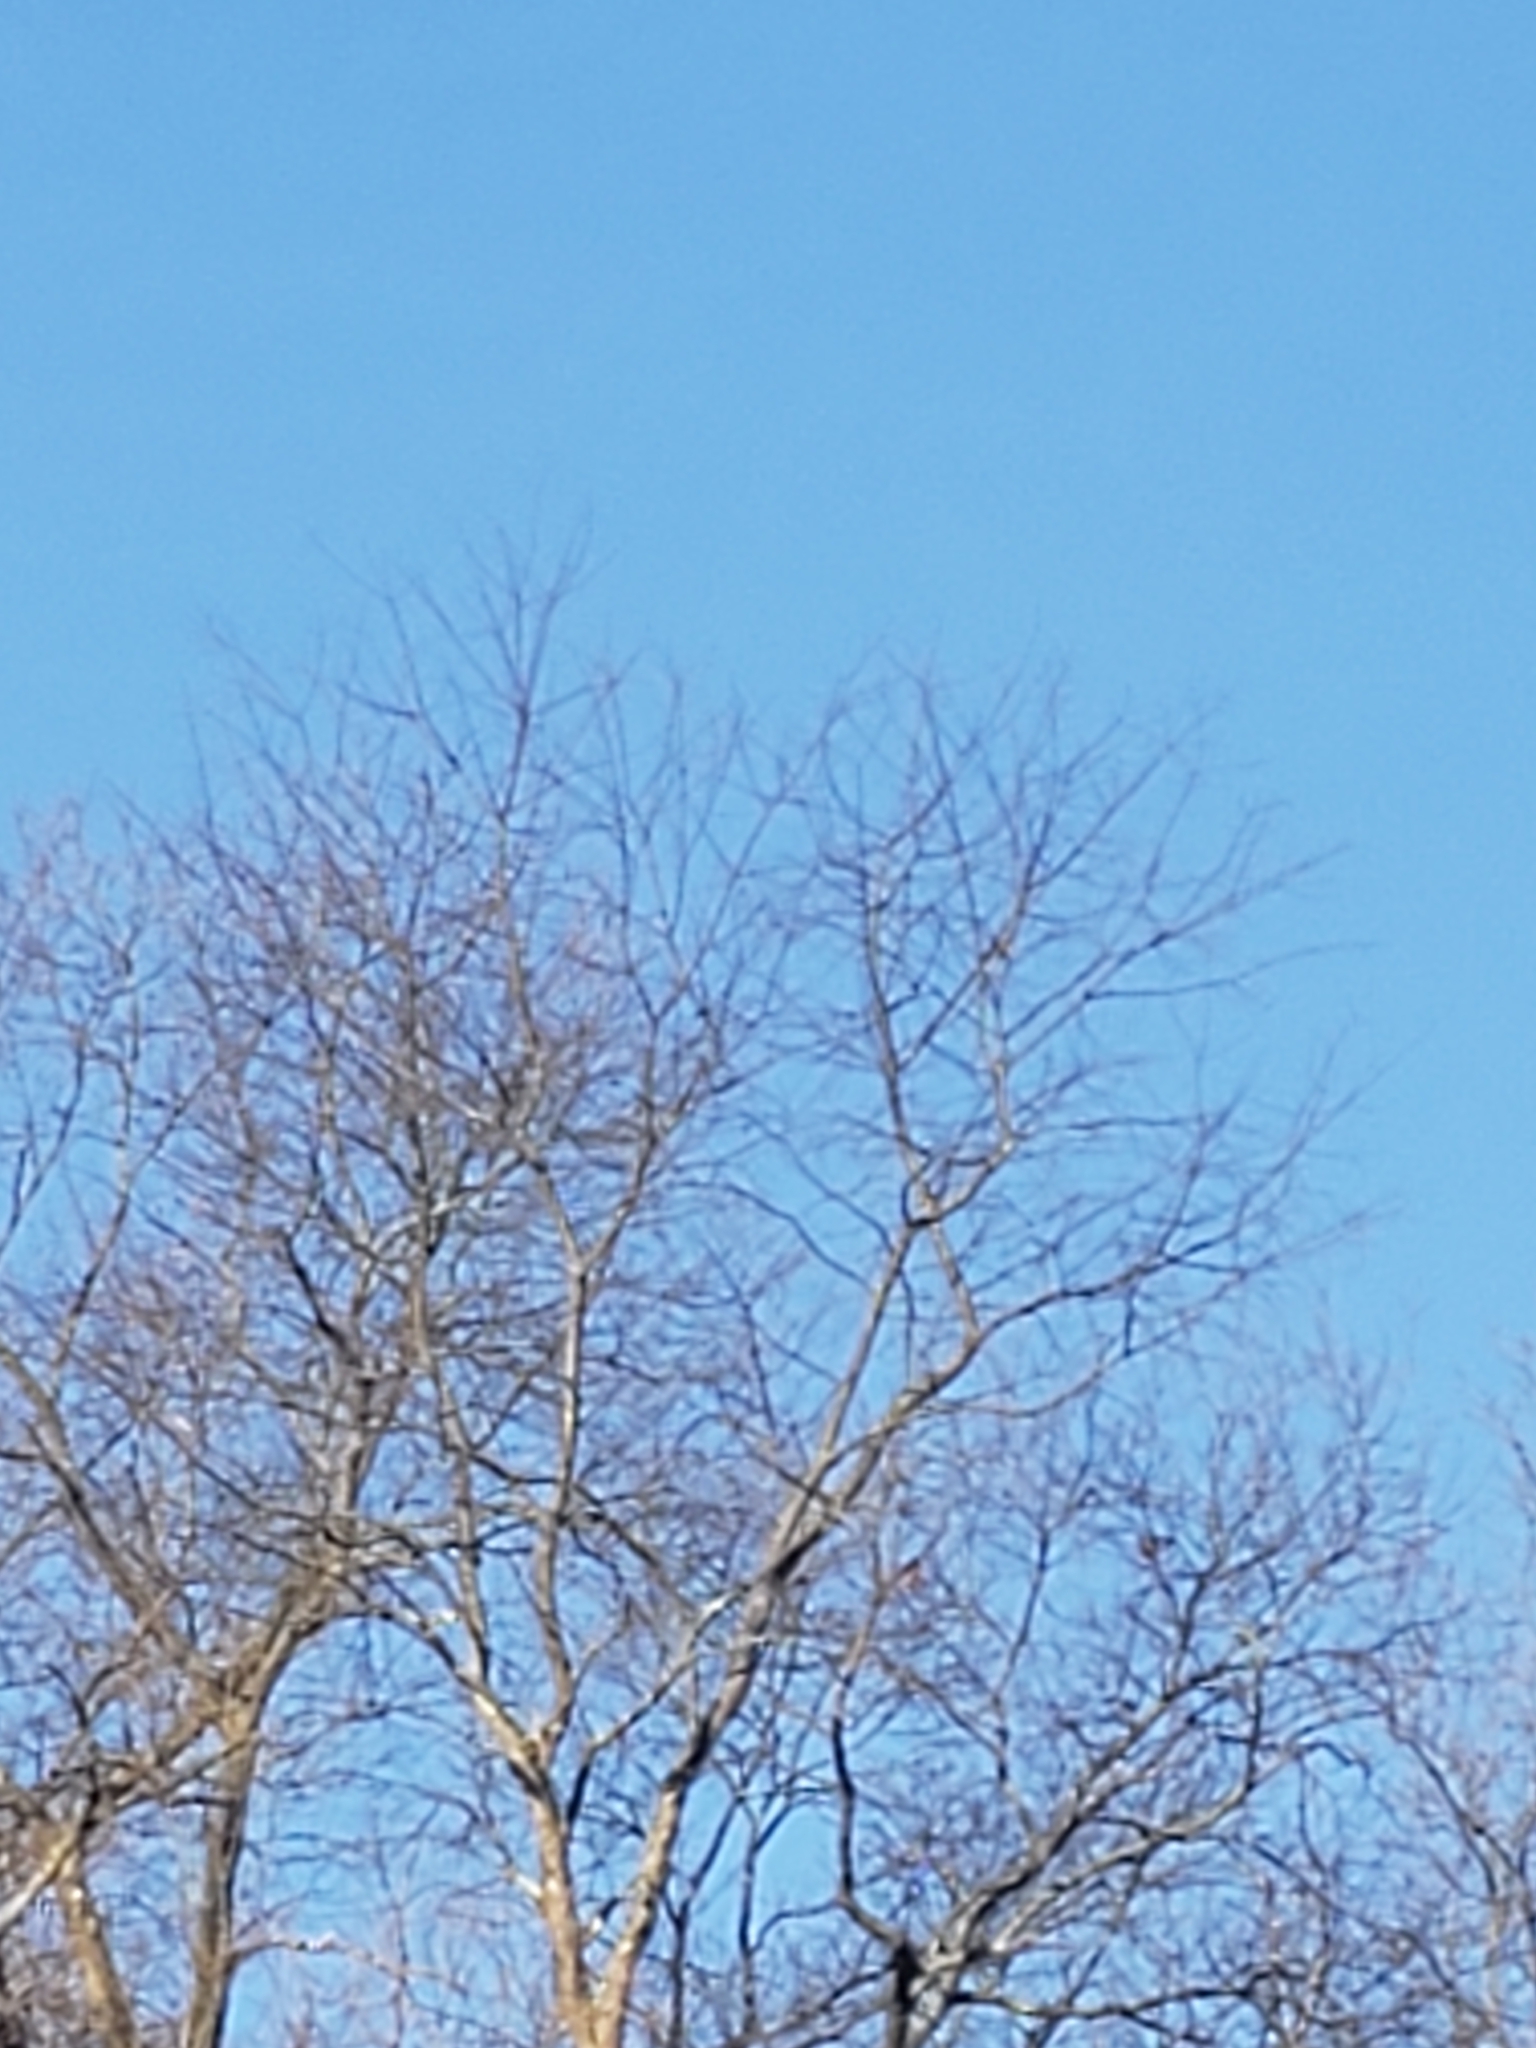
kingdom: Animalia
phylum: Chordata
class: Aves
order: Piciformes
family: Picidae
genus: Colaptes
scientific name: Colaptes auratus
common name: Northern flicker
